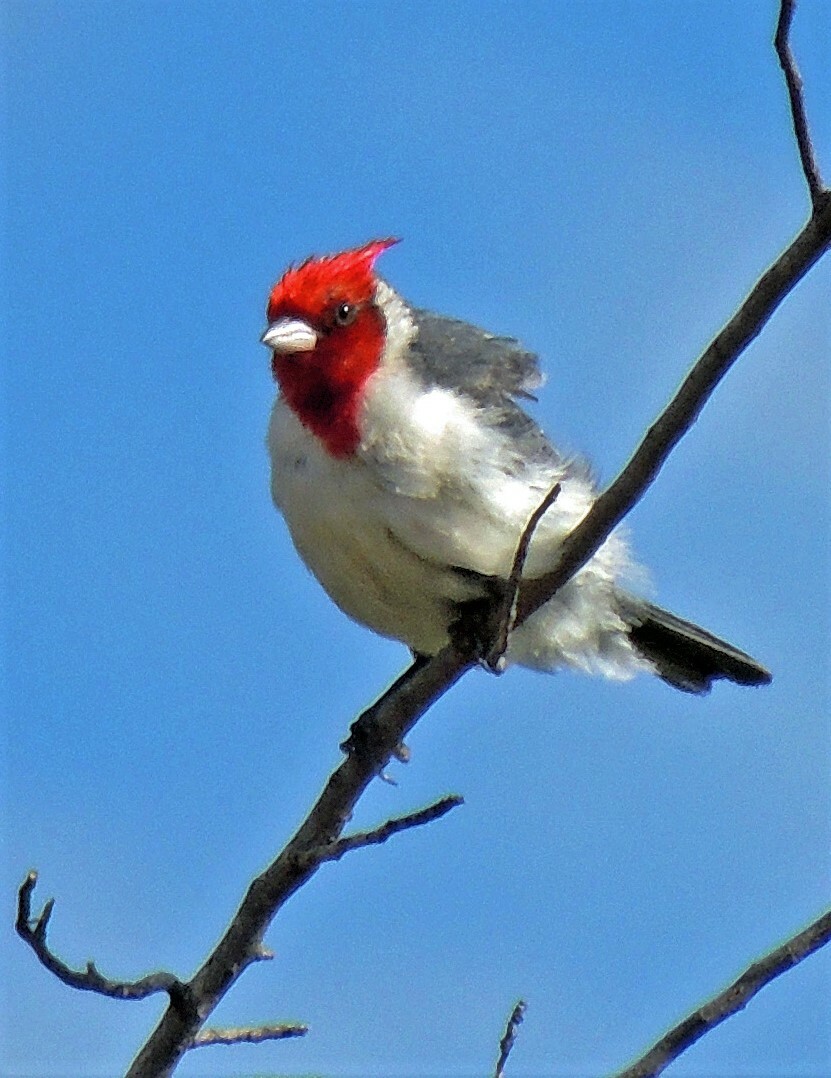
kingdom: Animalia
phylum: Chordata
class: Aves
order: Passeriformes
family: Thraupidae
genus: Paroaria
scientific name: Paroaria coronata
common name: Red-crested cardinal
